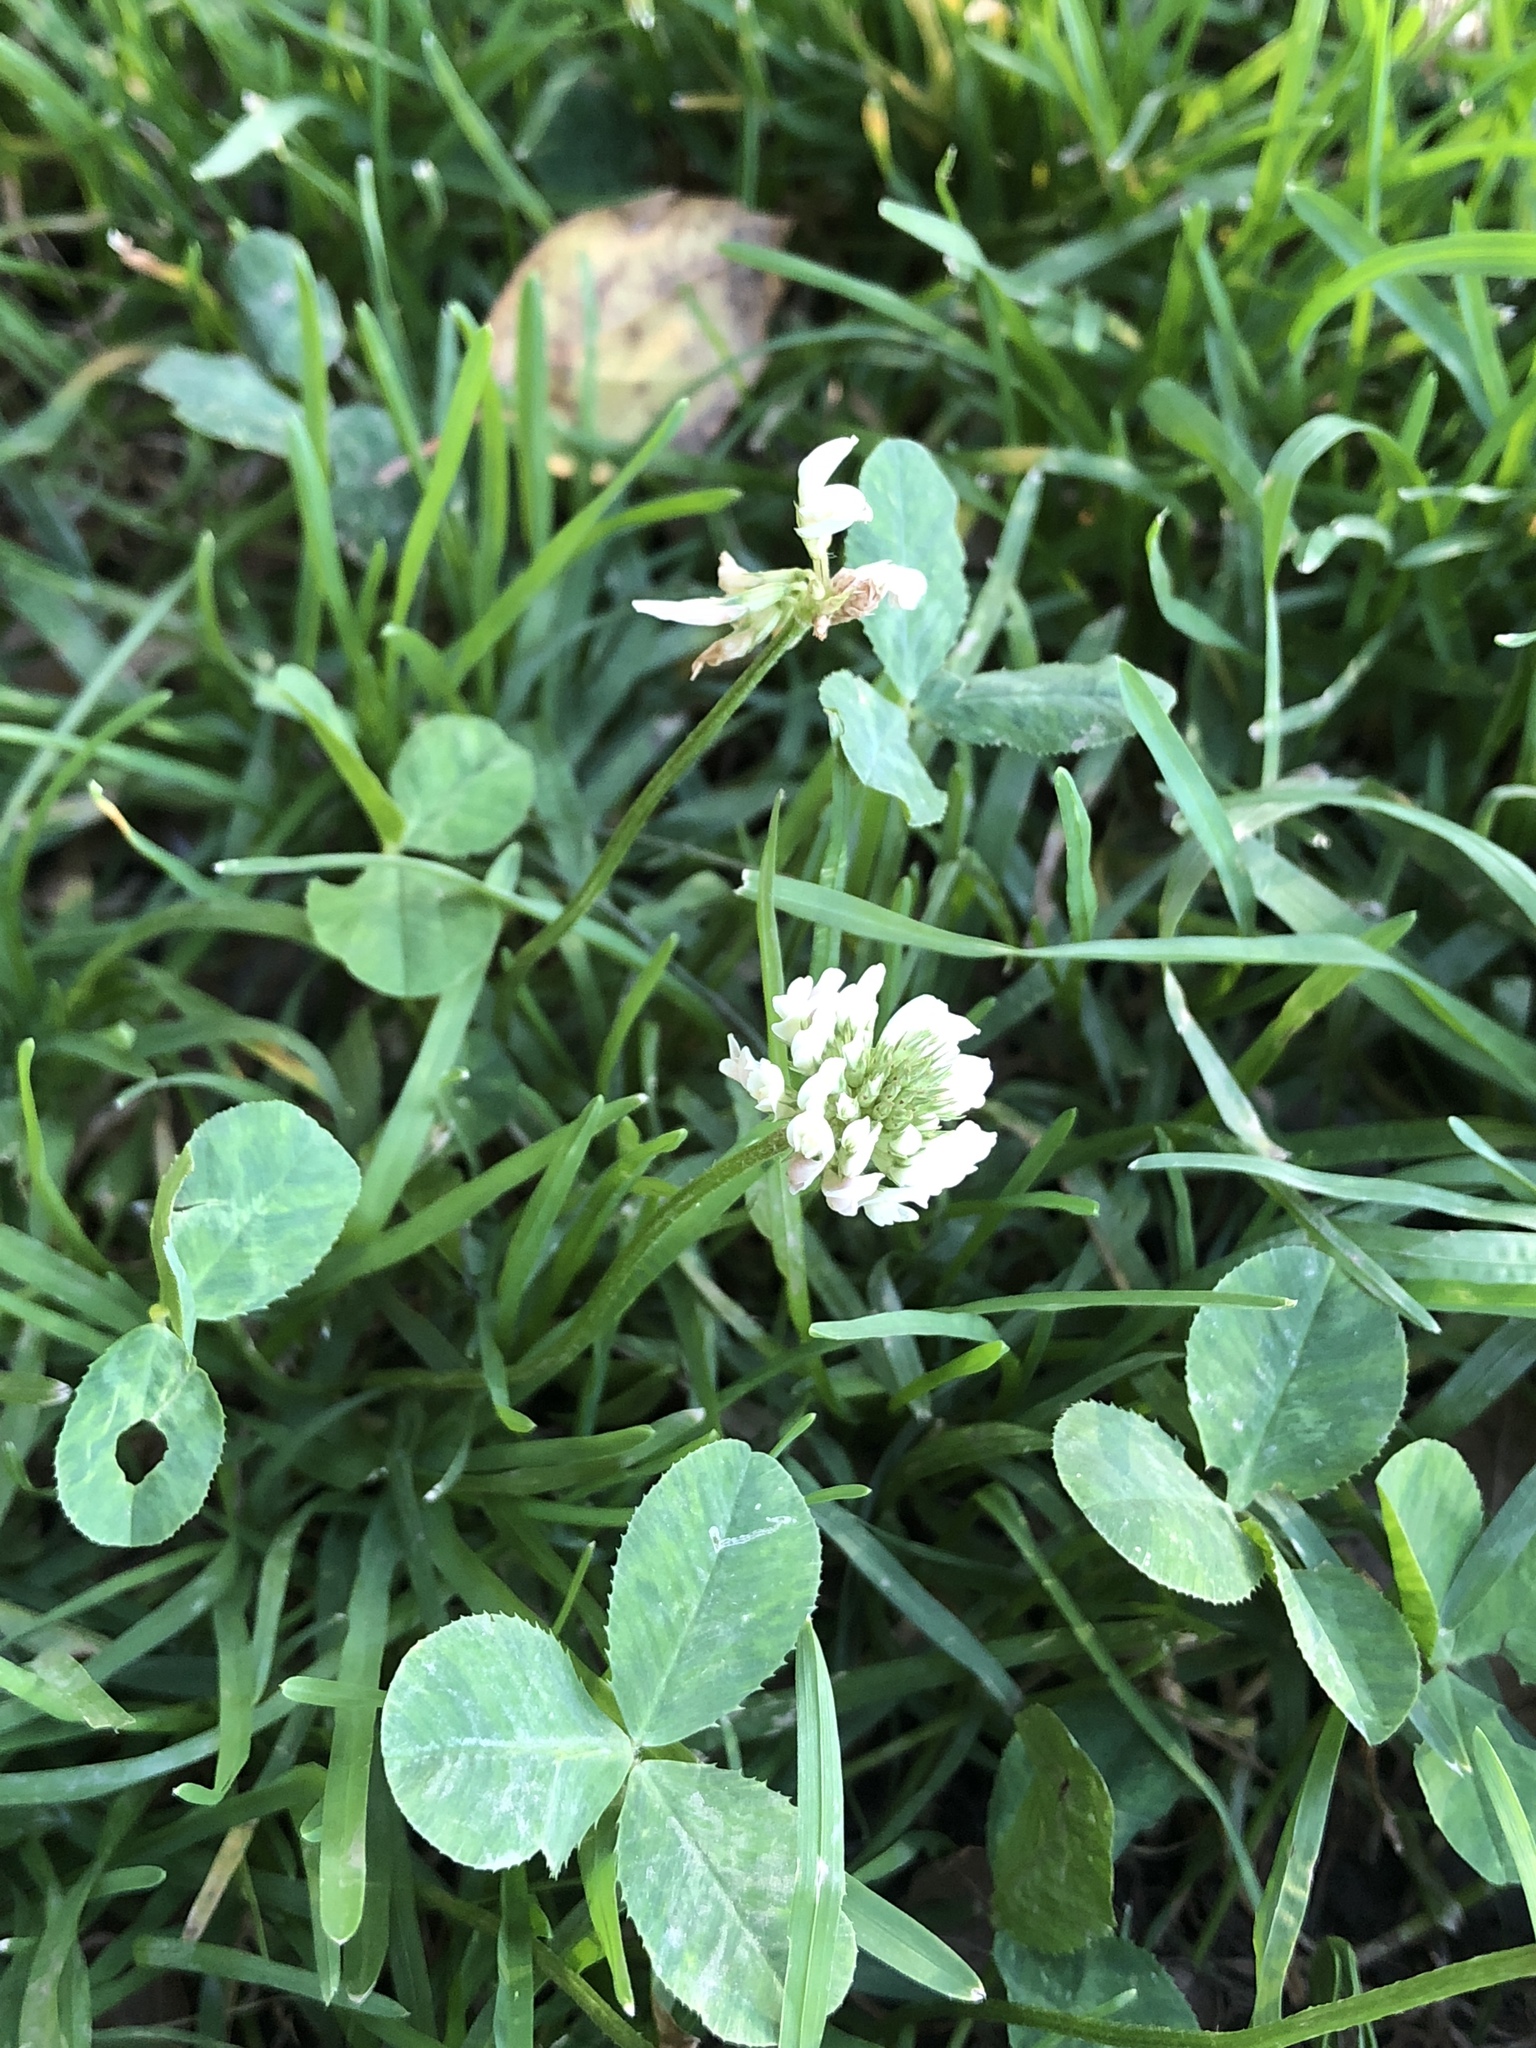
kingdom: Plantae
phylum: Tracheophyta
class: Magnoliopsida
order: Fabales
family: Fabaceae
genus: Trifolium
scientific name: Trifolium repens
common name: White clover
